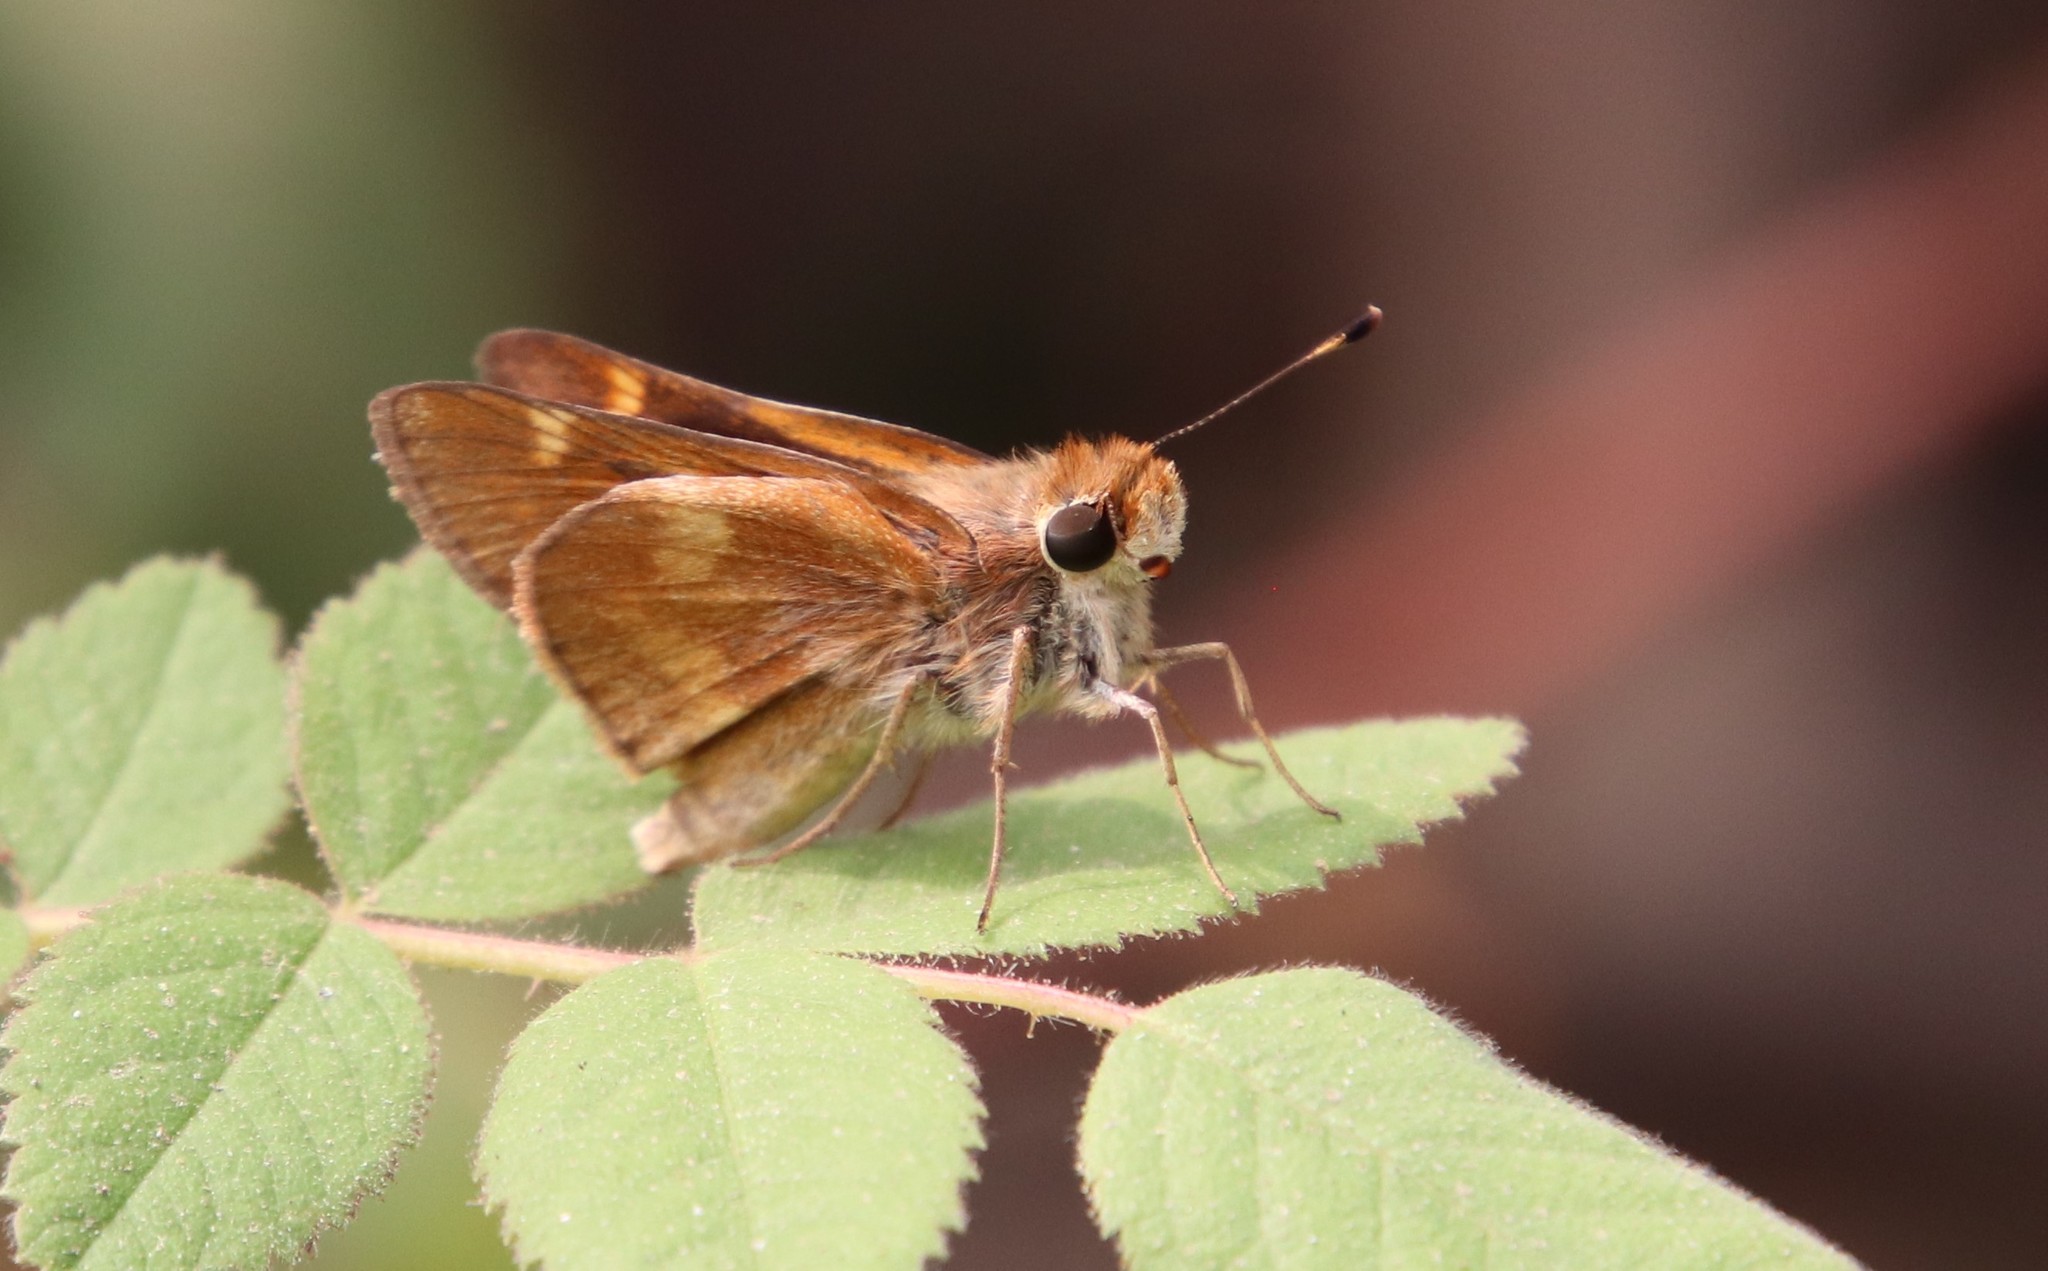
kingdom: Animalia
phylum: Arthropoda
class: Insecta
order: Lepidoptera
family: Hesperiidae
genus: Lon
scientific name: Lon melane
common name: Umber skipper
